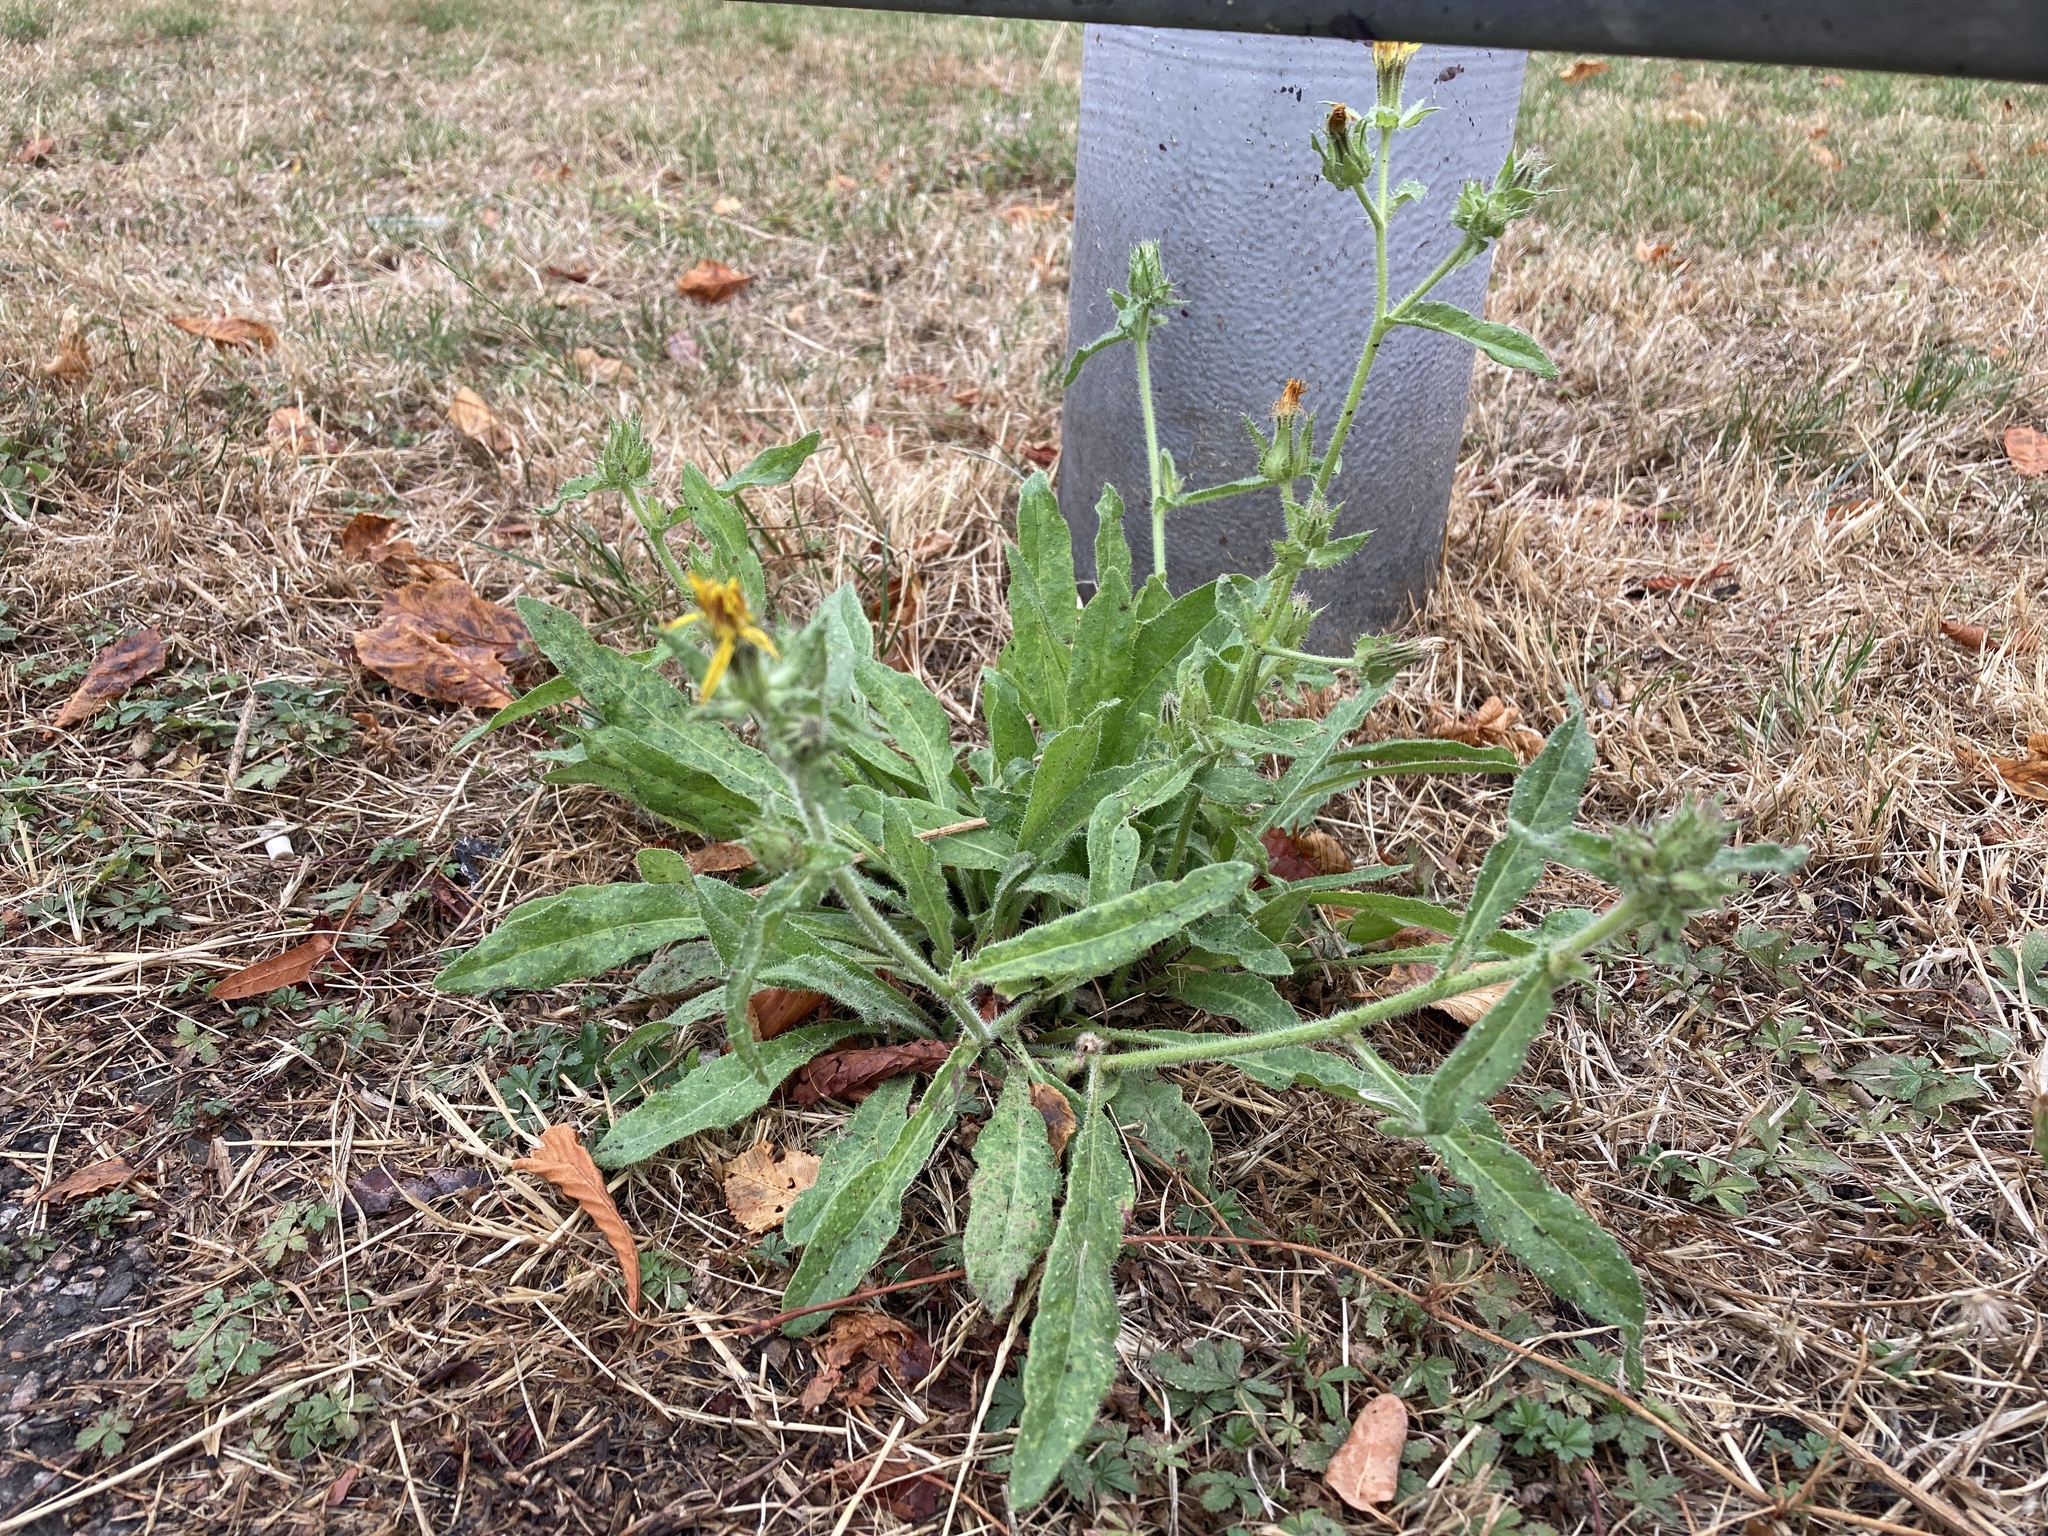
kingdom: Plantae
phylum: Tracheophyta
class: Magnoliopsida
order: Asterales
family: Asteraceae
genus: Helminthotheca
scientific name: Helminthotheca echioides
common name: Ox-tongue
